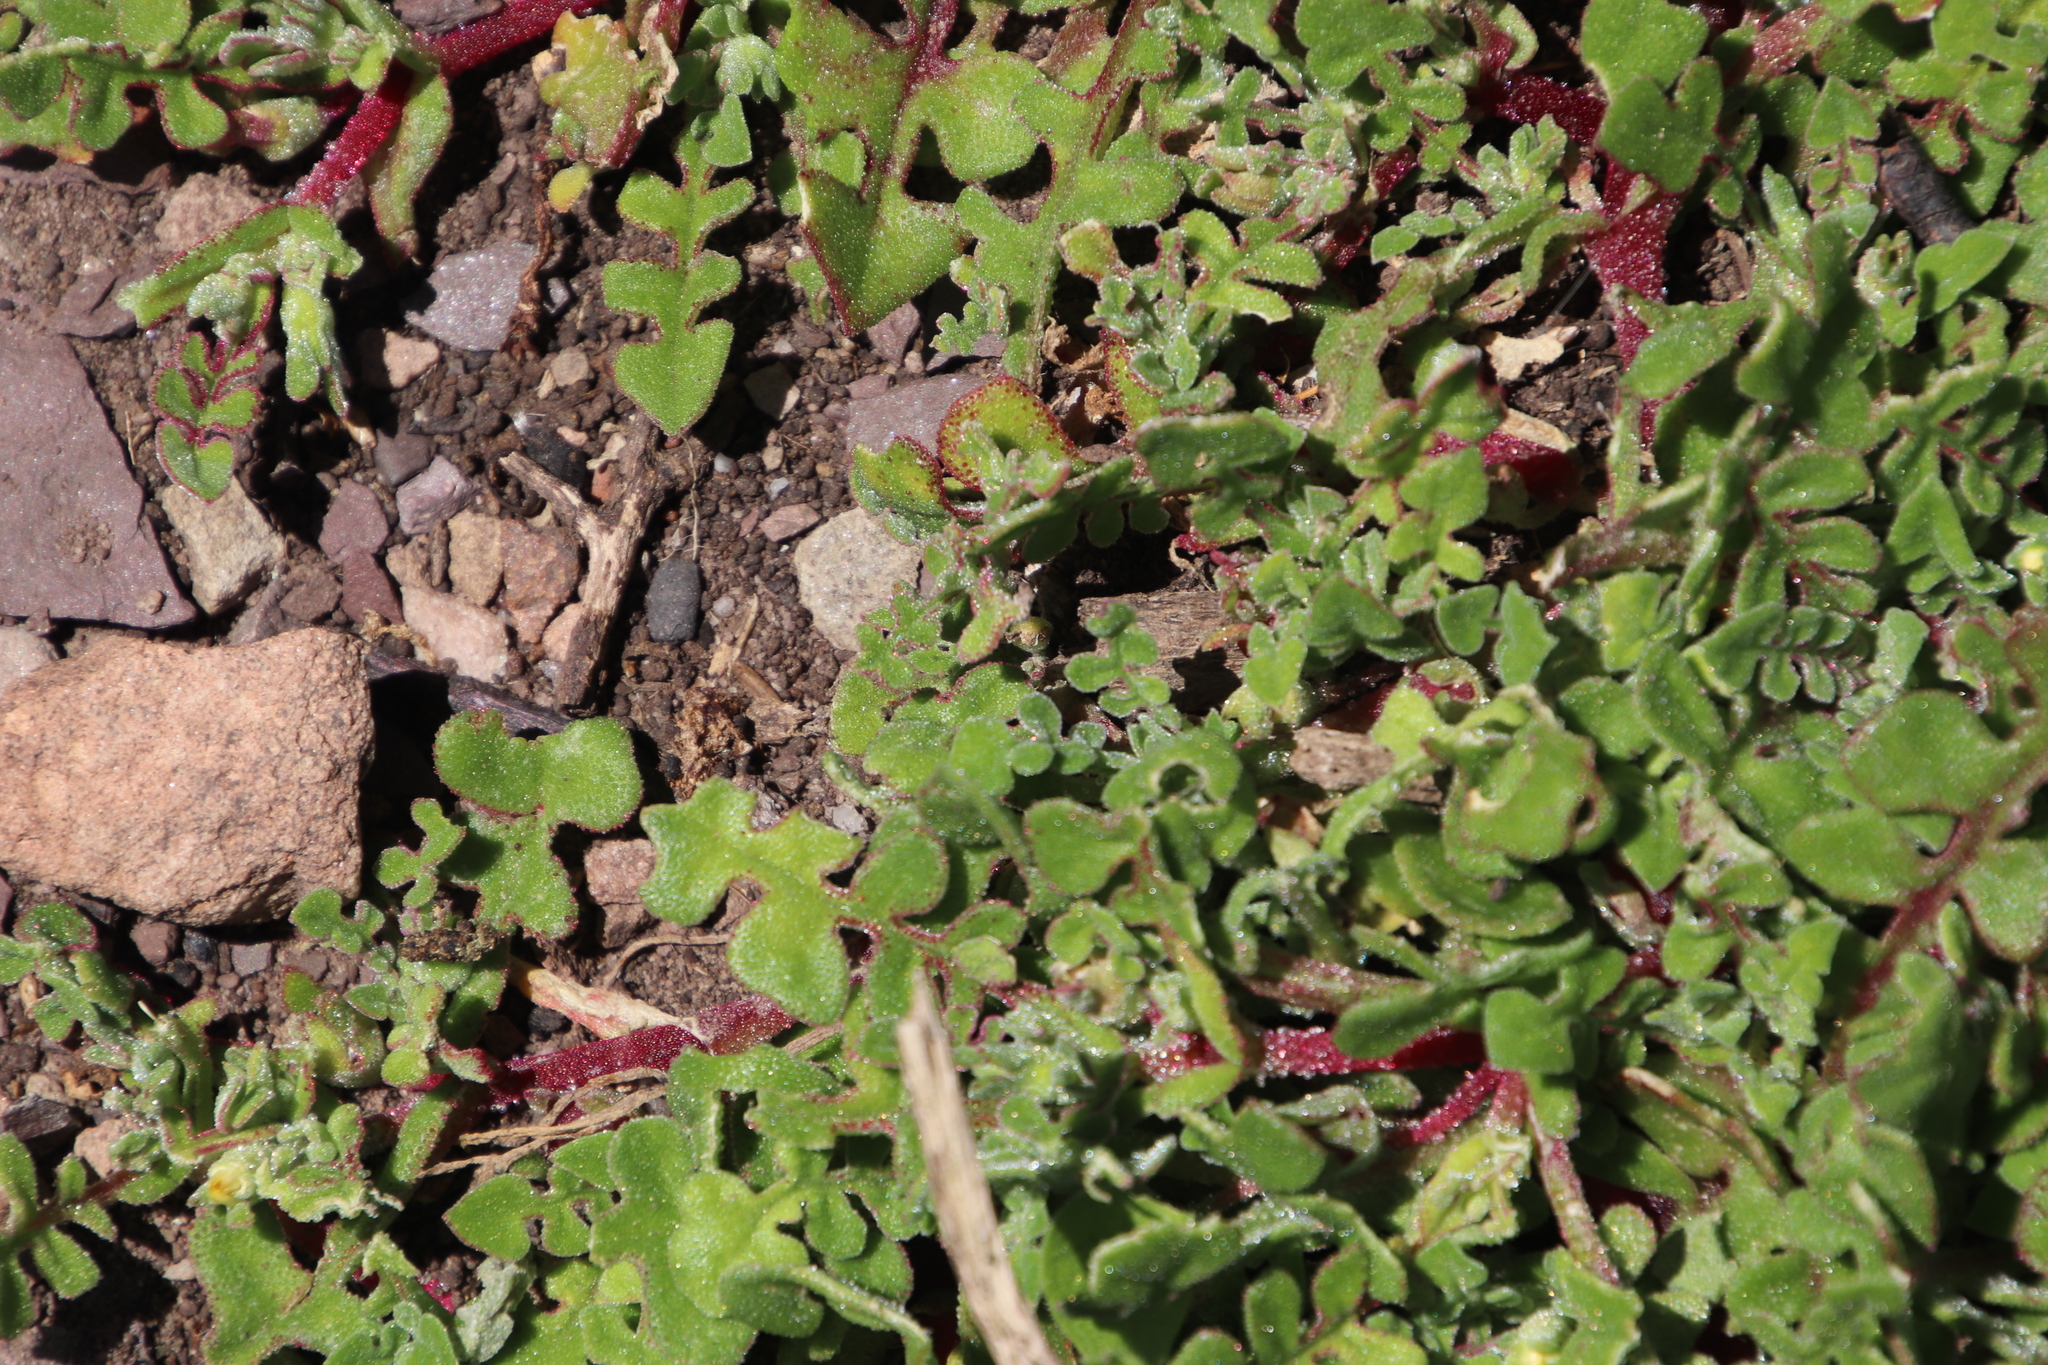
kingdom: Plantae
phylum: Tracheophyta
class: Magnoliopsida
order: Caryophyllales
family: Aizoaceae
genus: Cleretum
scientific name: Cleretum herrei
